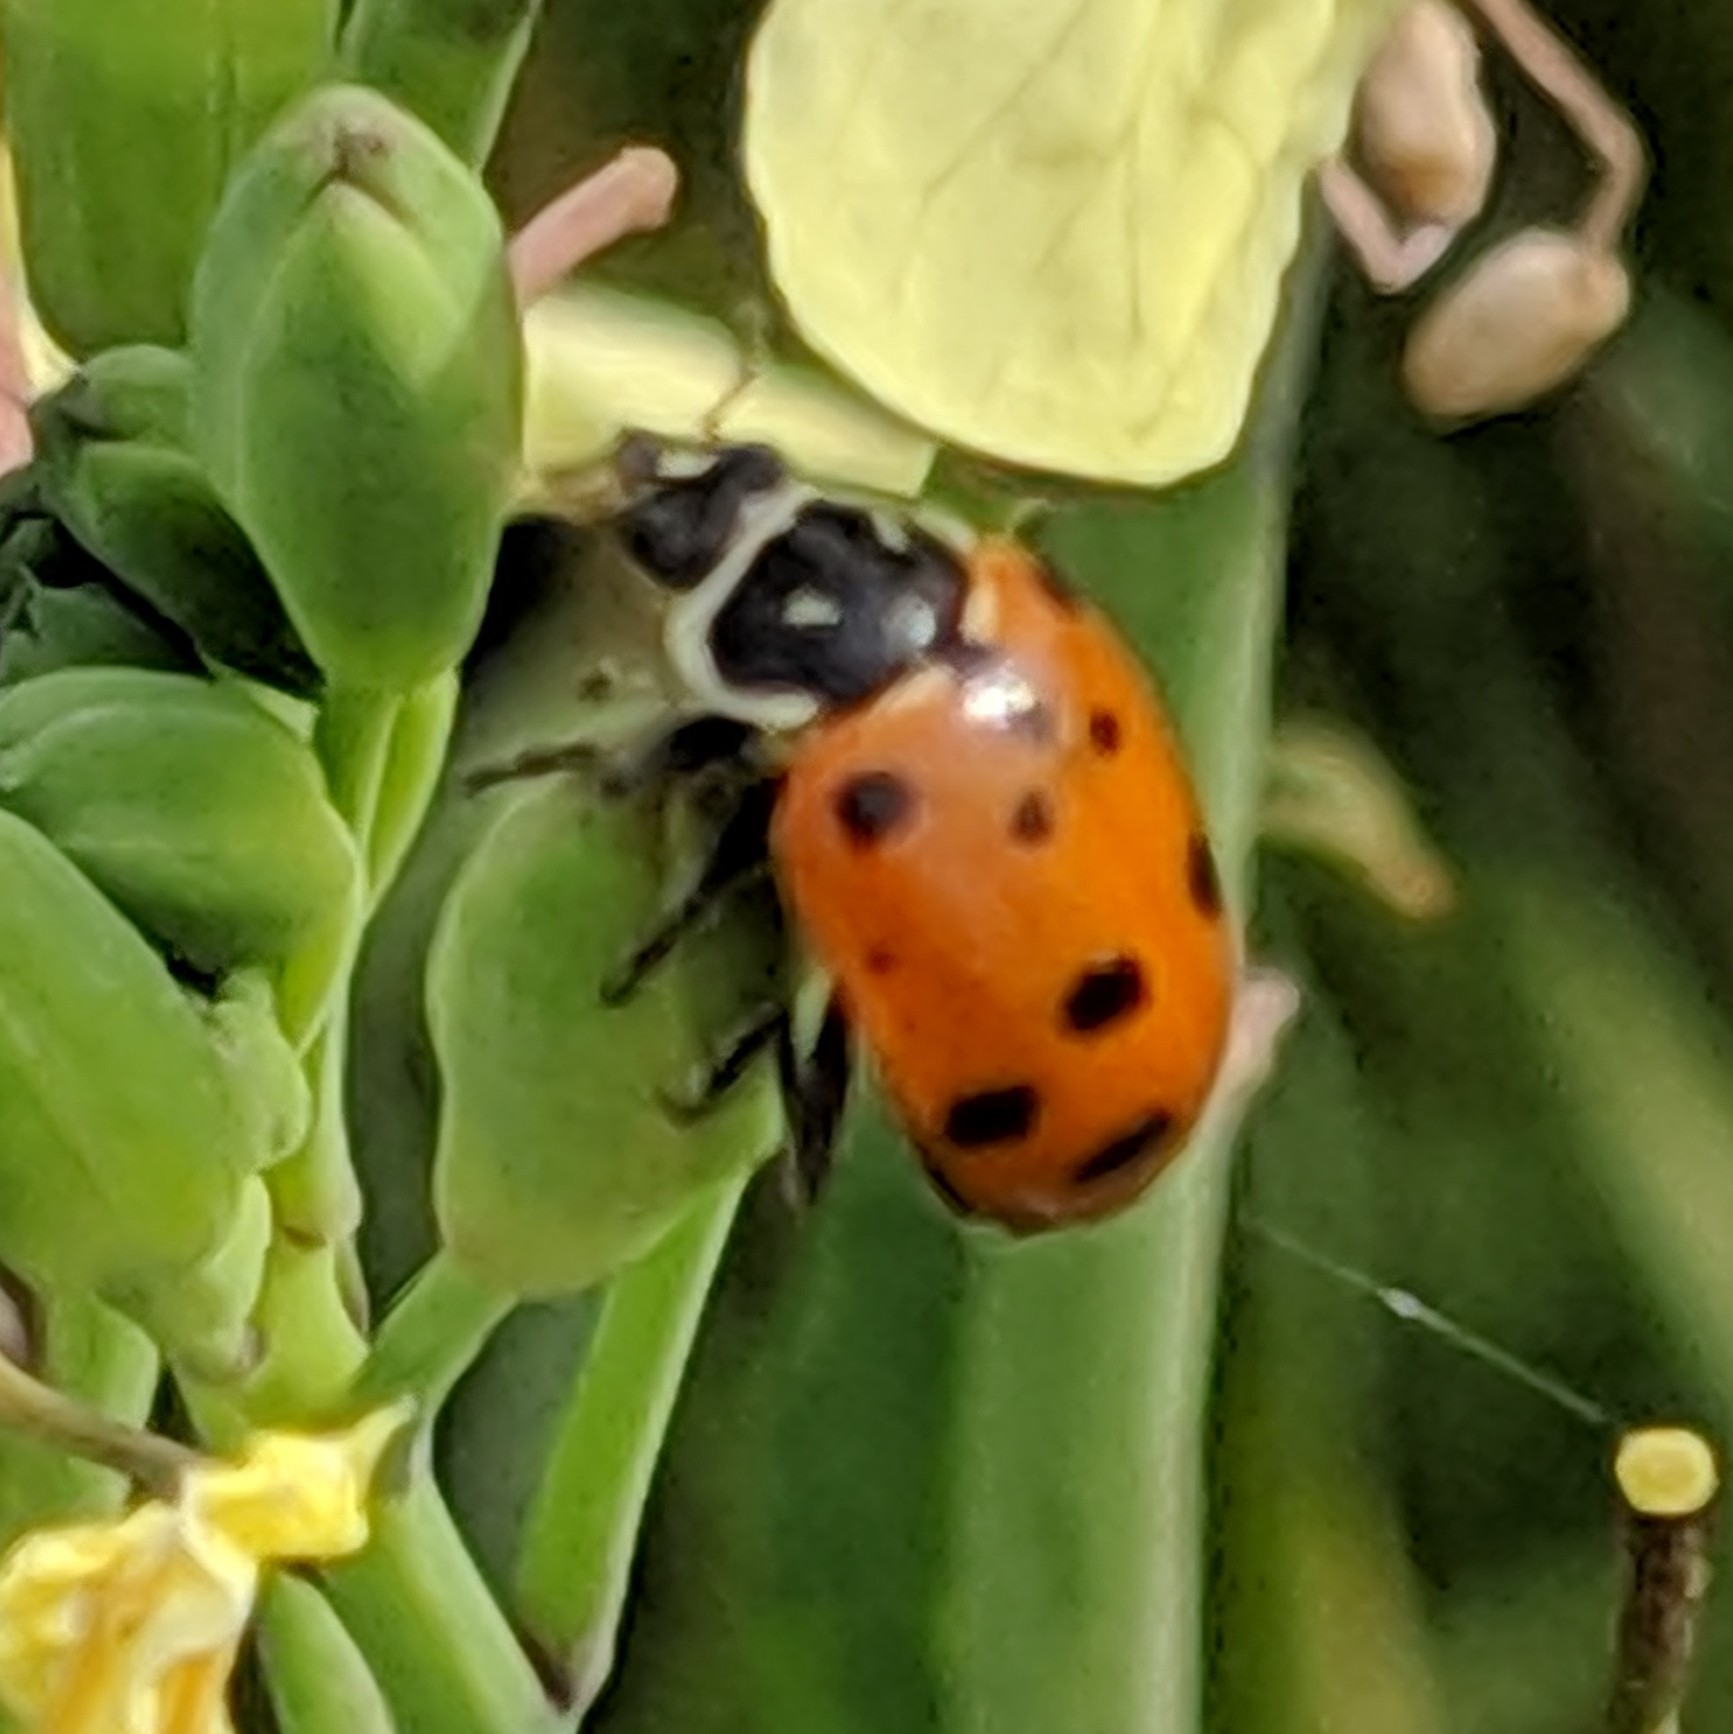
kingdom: Animalia
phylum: Arthropoda
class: Insecta
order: Coleoptera
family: Coccinellidae
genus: Hippodamia
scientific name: Hippodamia convergens
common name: Convergent lady beetle
